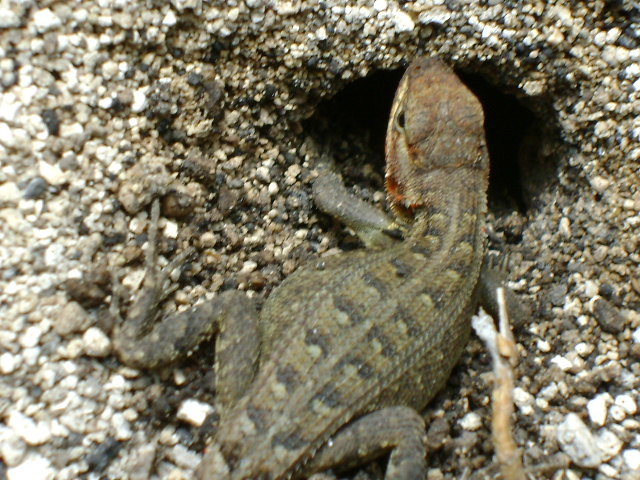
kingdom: Animalia
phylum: Chordata
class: Squamata
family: Phrynosomatidae
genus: Sceloporus
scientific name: Sceloporus variabilis
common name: Rosebelly lizard
